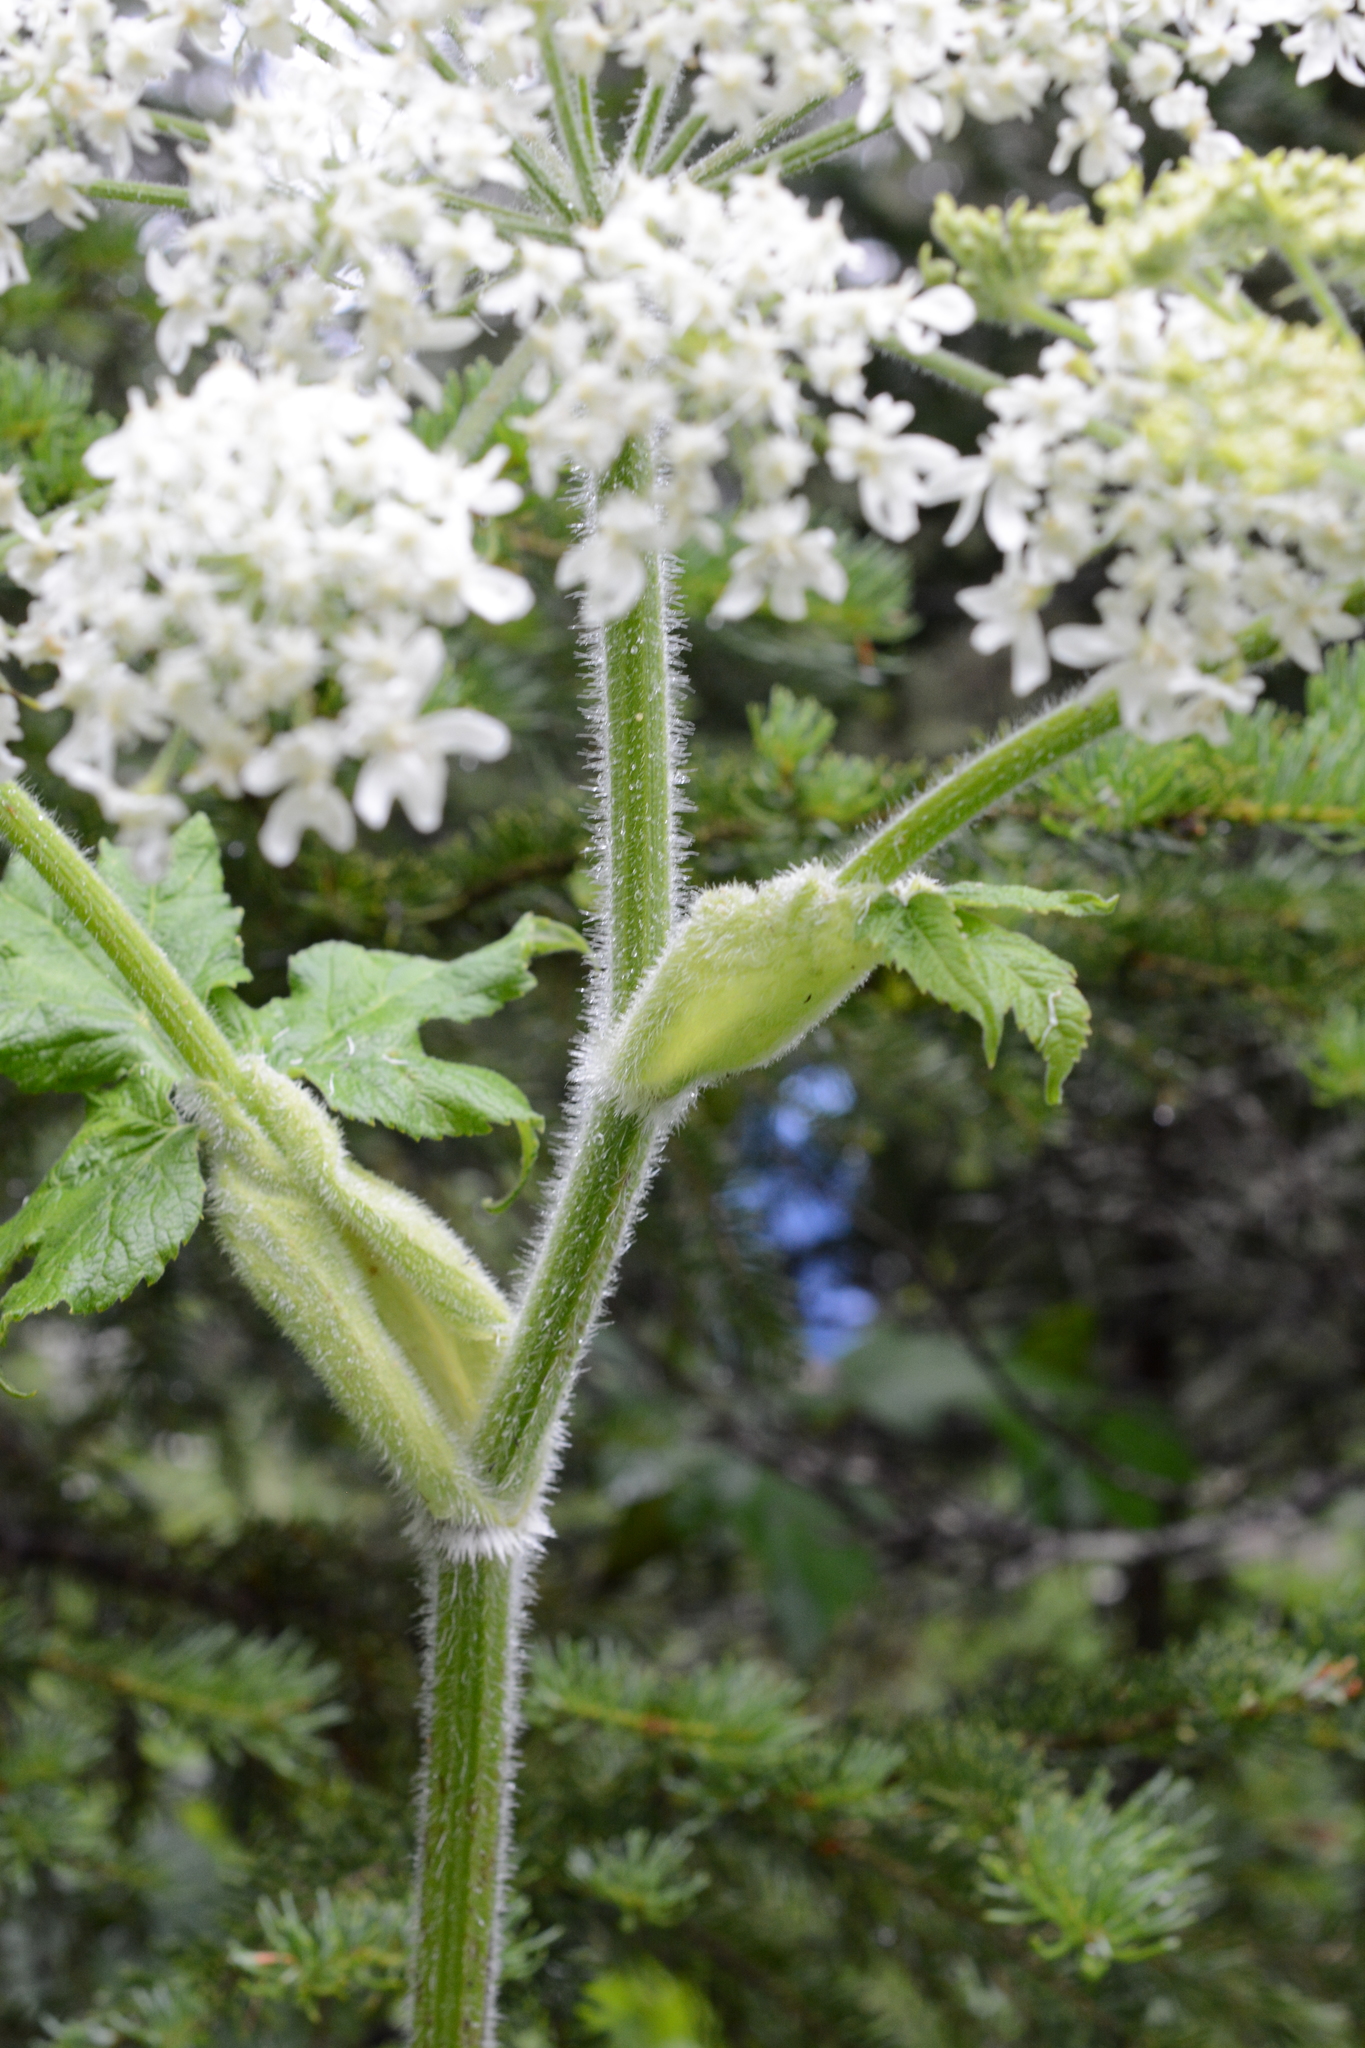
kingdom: Plantae
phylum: Tracheophyta
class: Magnoliopsida
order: Apiales
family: Apiaceae
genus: Heracleum
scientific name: Heracleum maximum
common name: American cow parsnip
